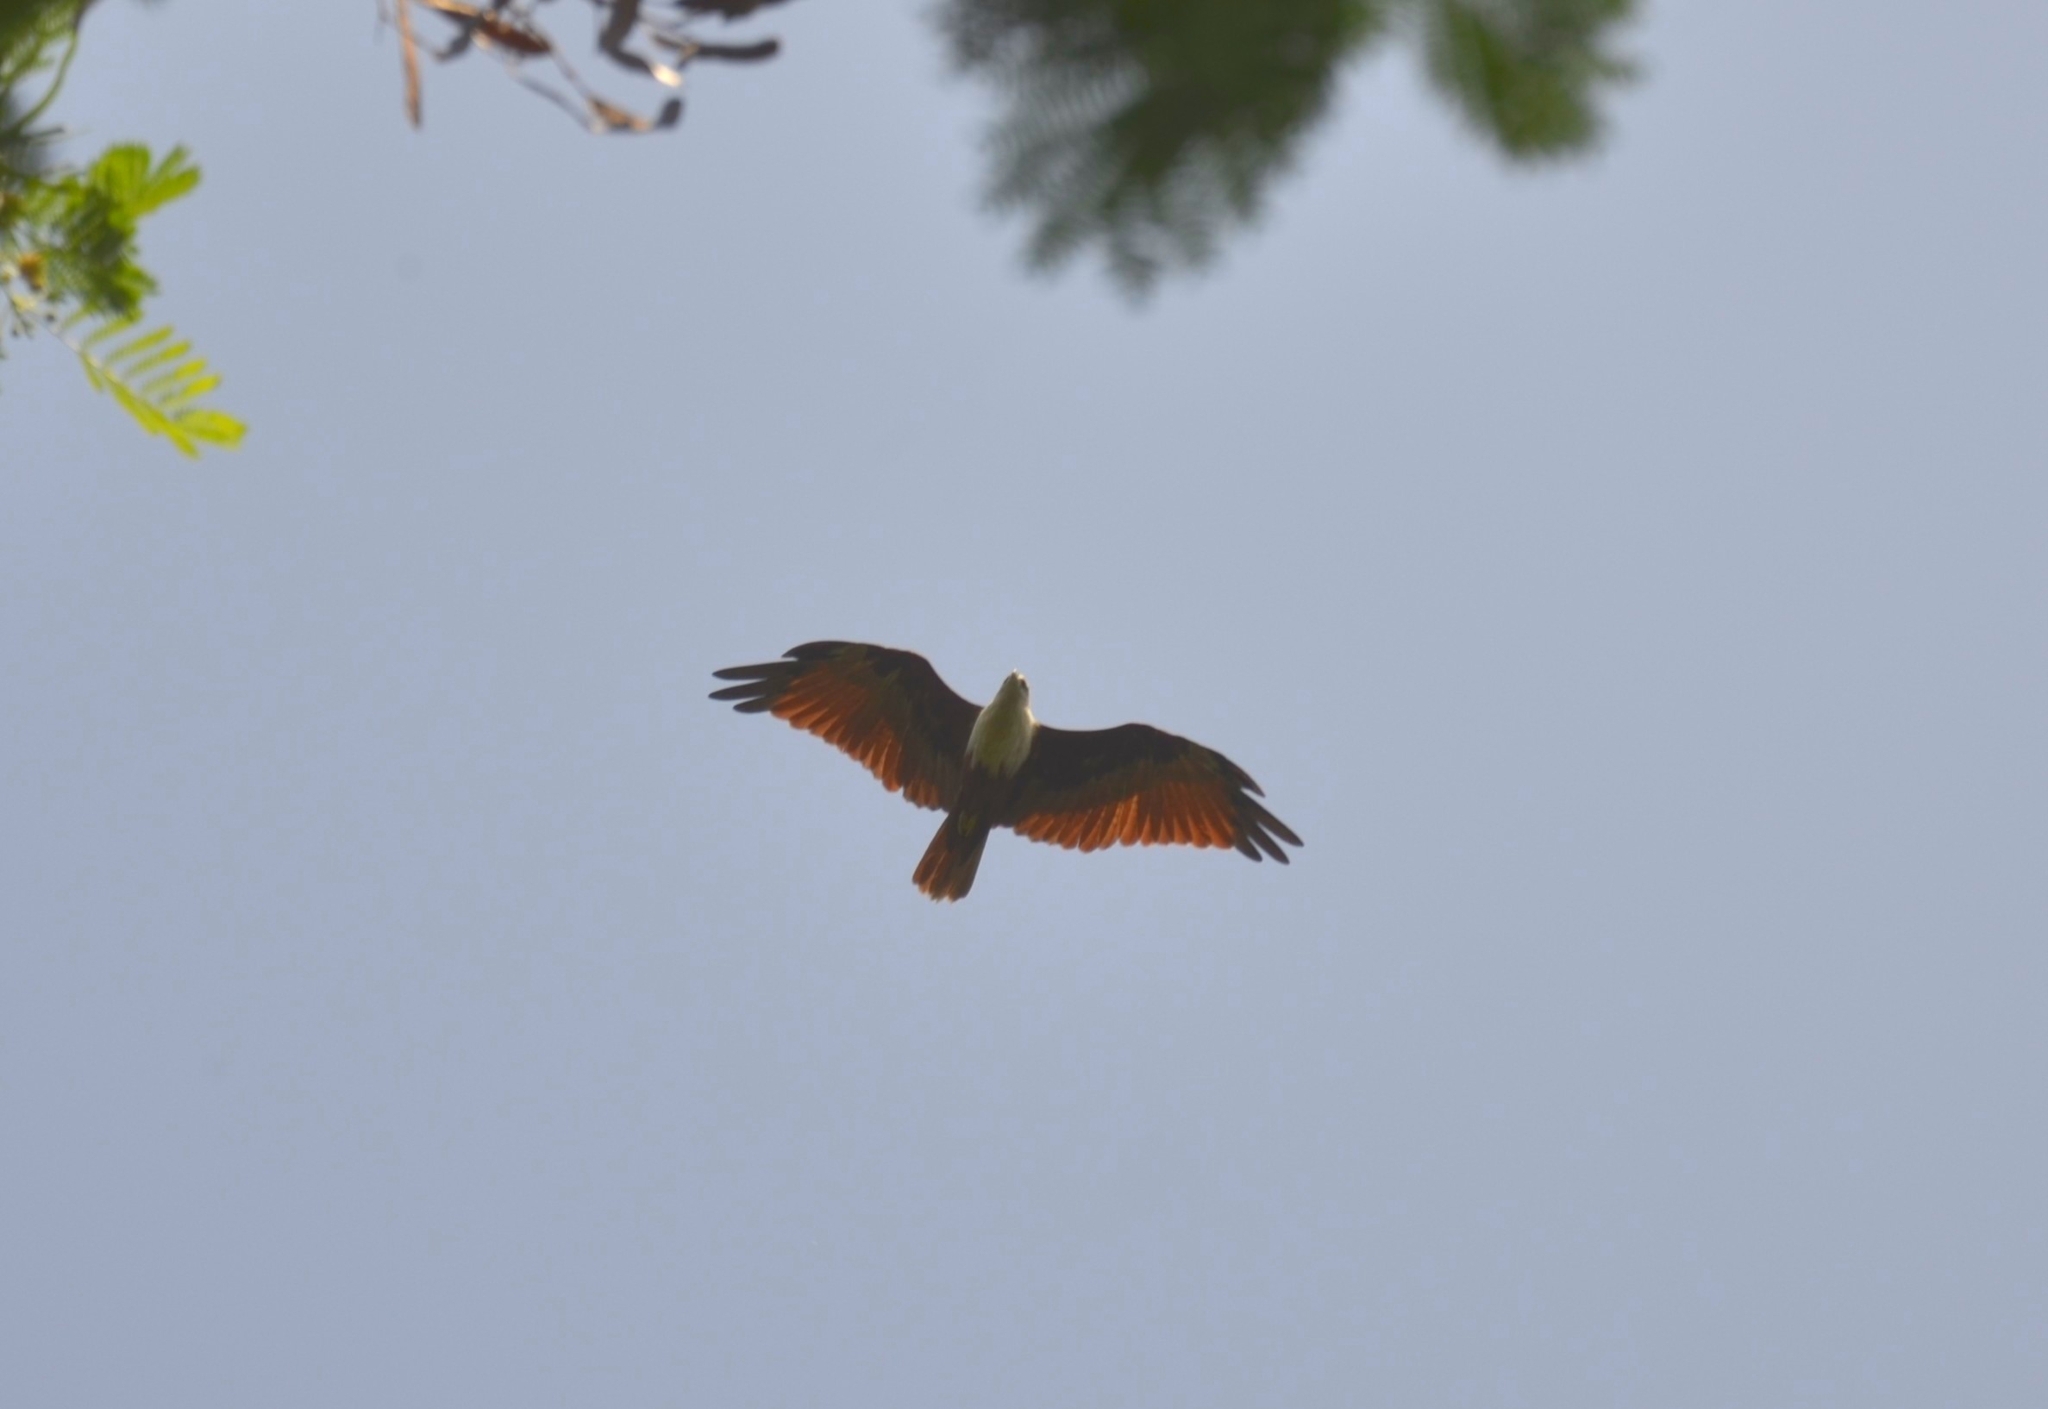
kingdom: Animalia
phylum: Chordata
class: Aves
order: Accipitriformes
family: Accipitridae
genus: Haliastur
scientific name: Haliastur indus
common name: Brahminy kite
